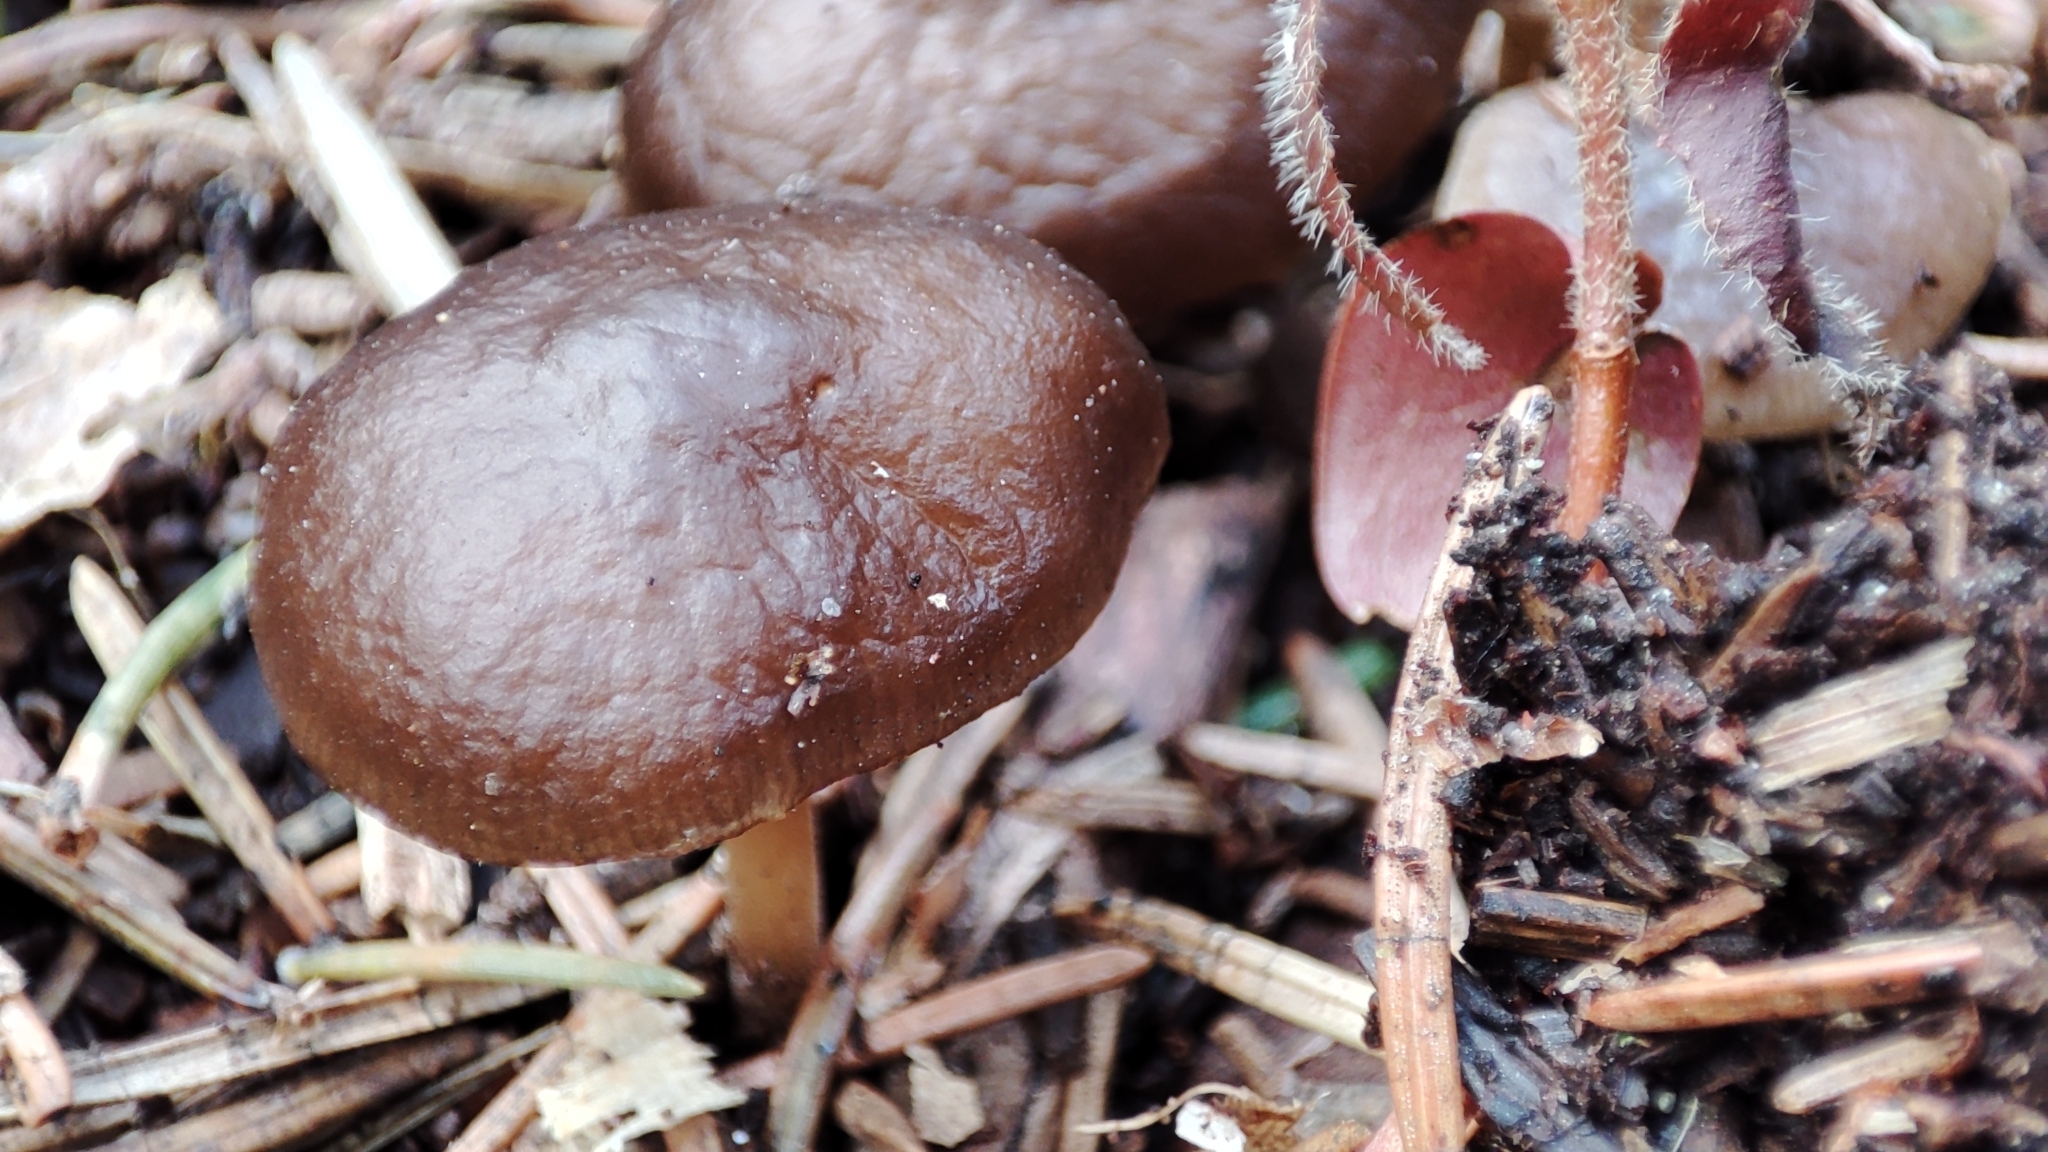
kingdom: Fungi
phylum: Basidiomycota
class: Agaricomycetes
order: Agaricales
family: Physalacriaceae
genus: Strobilurus
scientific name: Strobilurus esculentus
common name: Sprucecone cap
